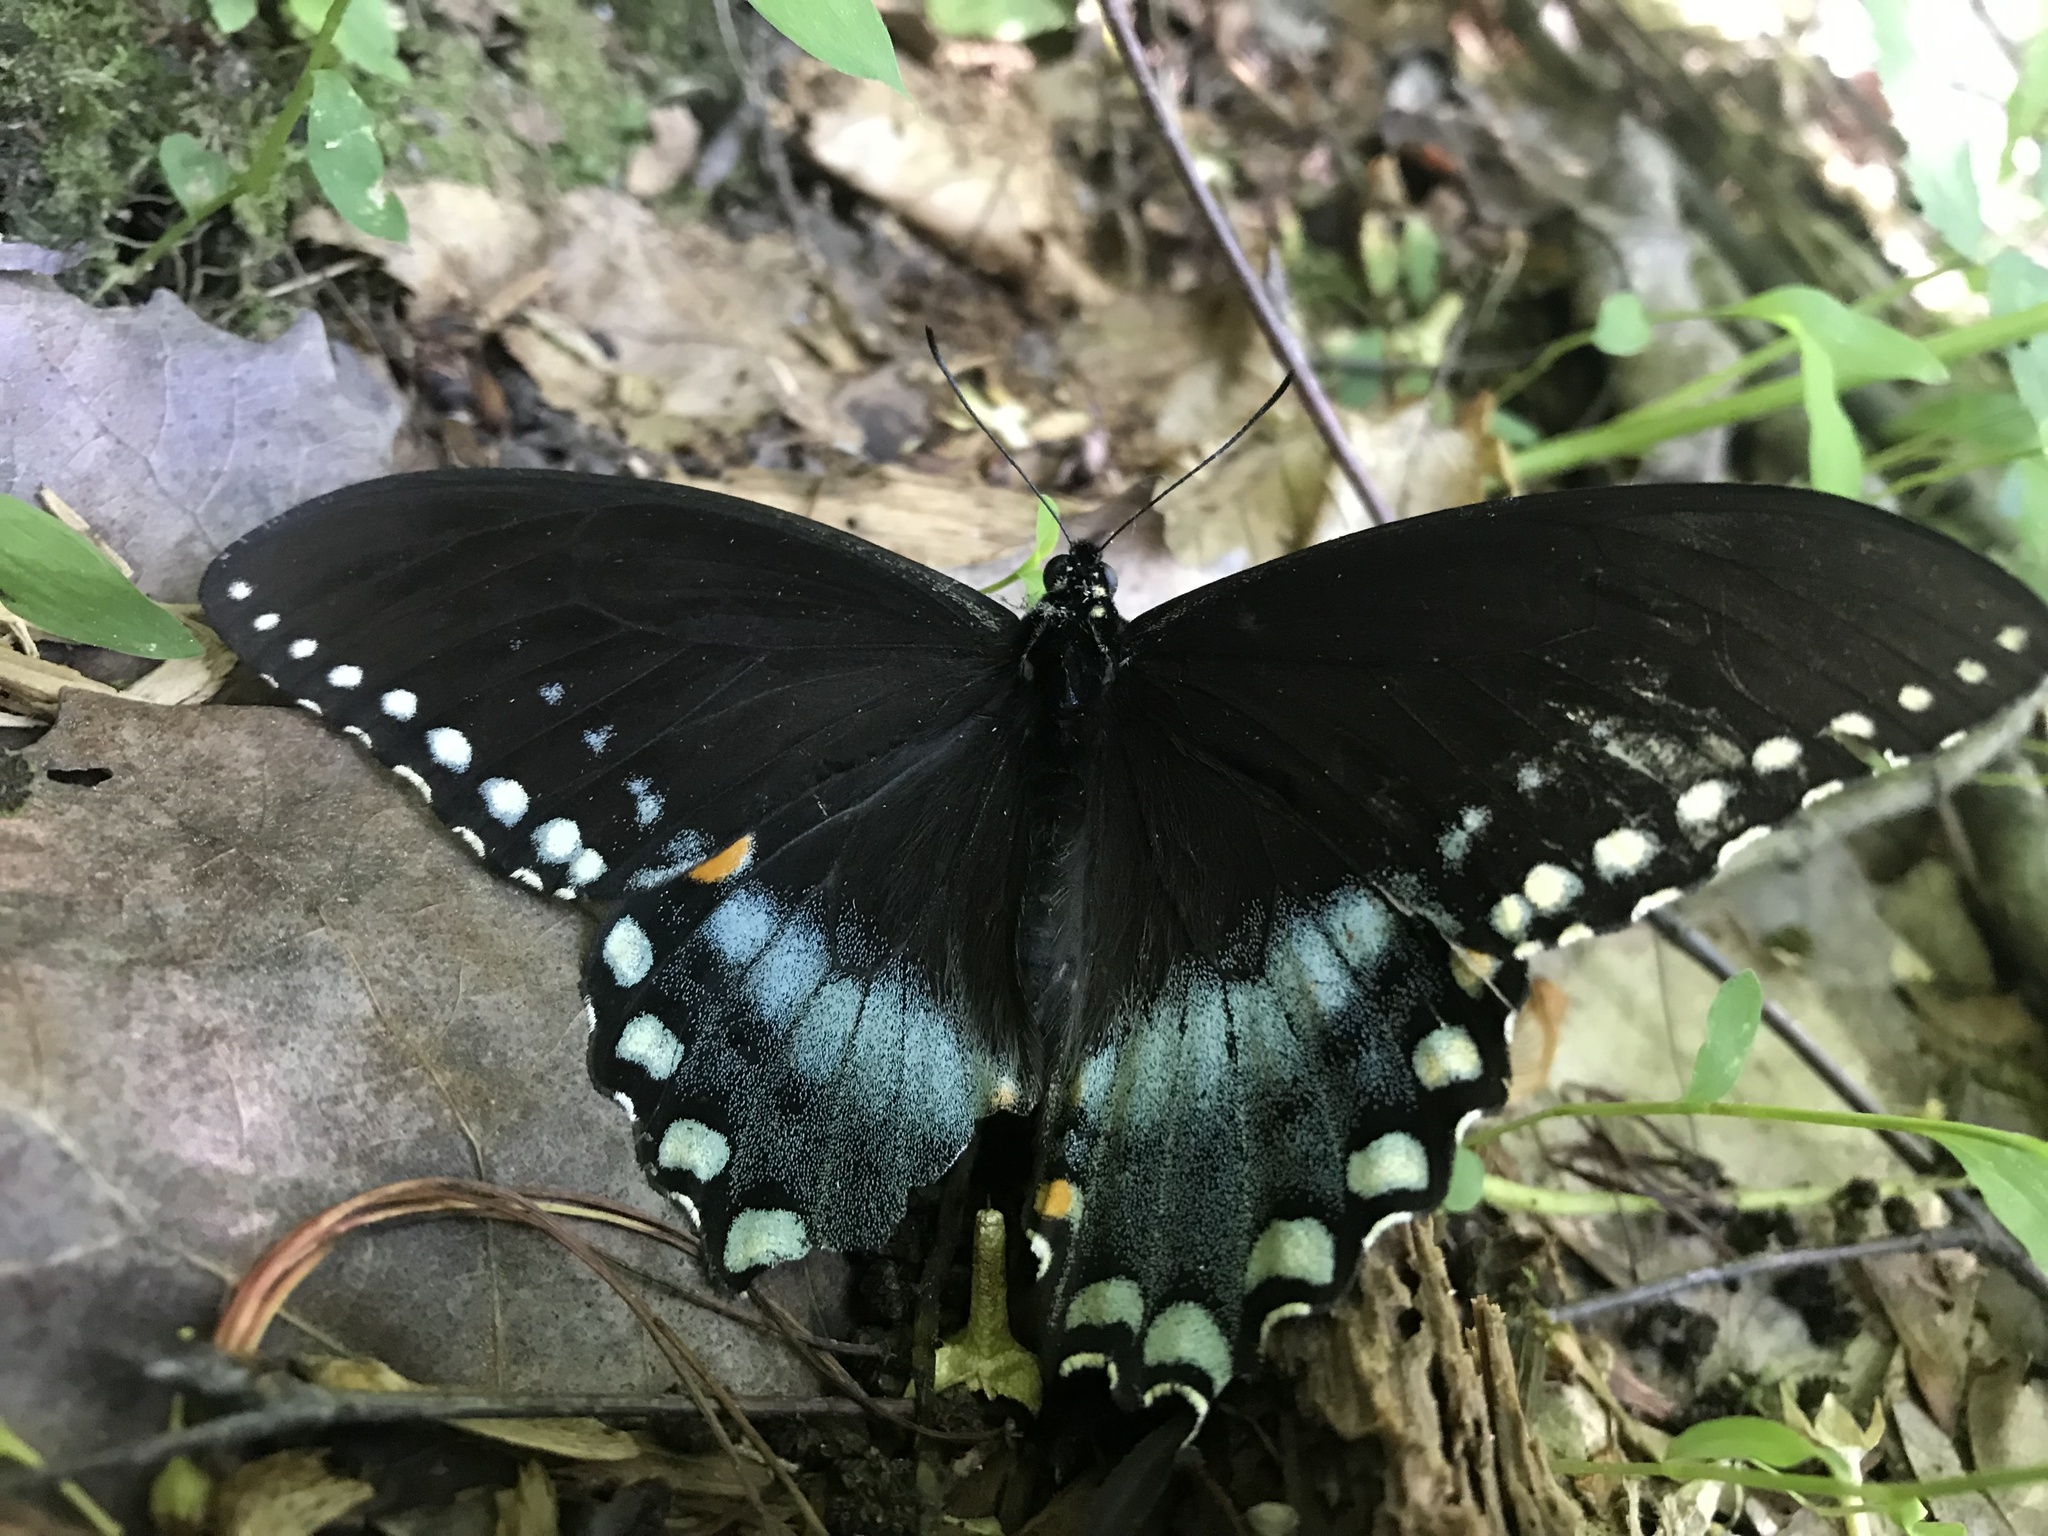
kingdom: Animalia
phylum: Arthropoda
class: Insecta
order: Lepidoptera
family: Papilionidae
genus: Papilio
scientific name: Papilio troilus
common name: Spicebush swallowtail
